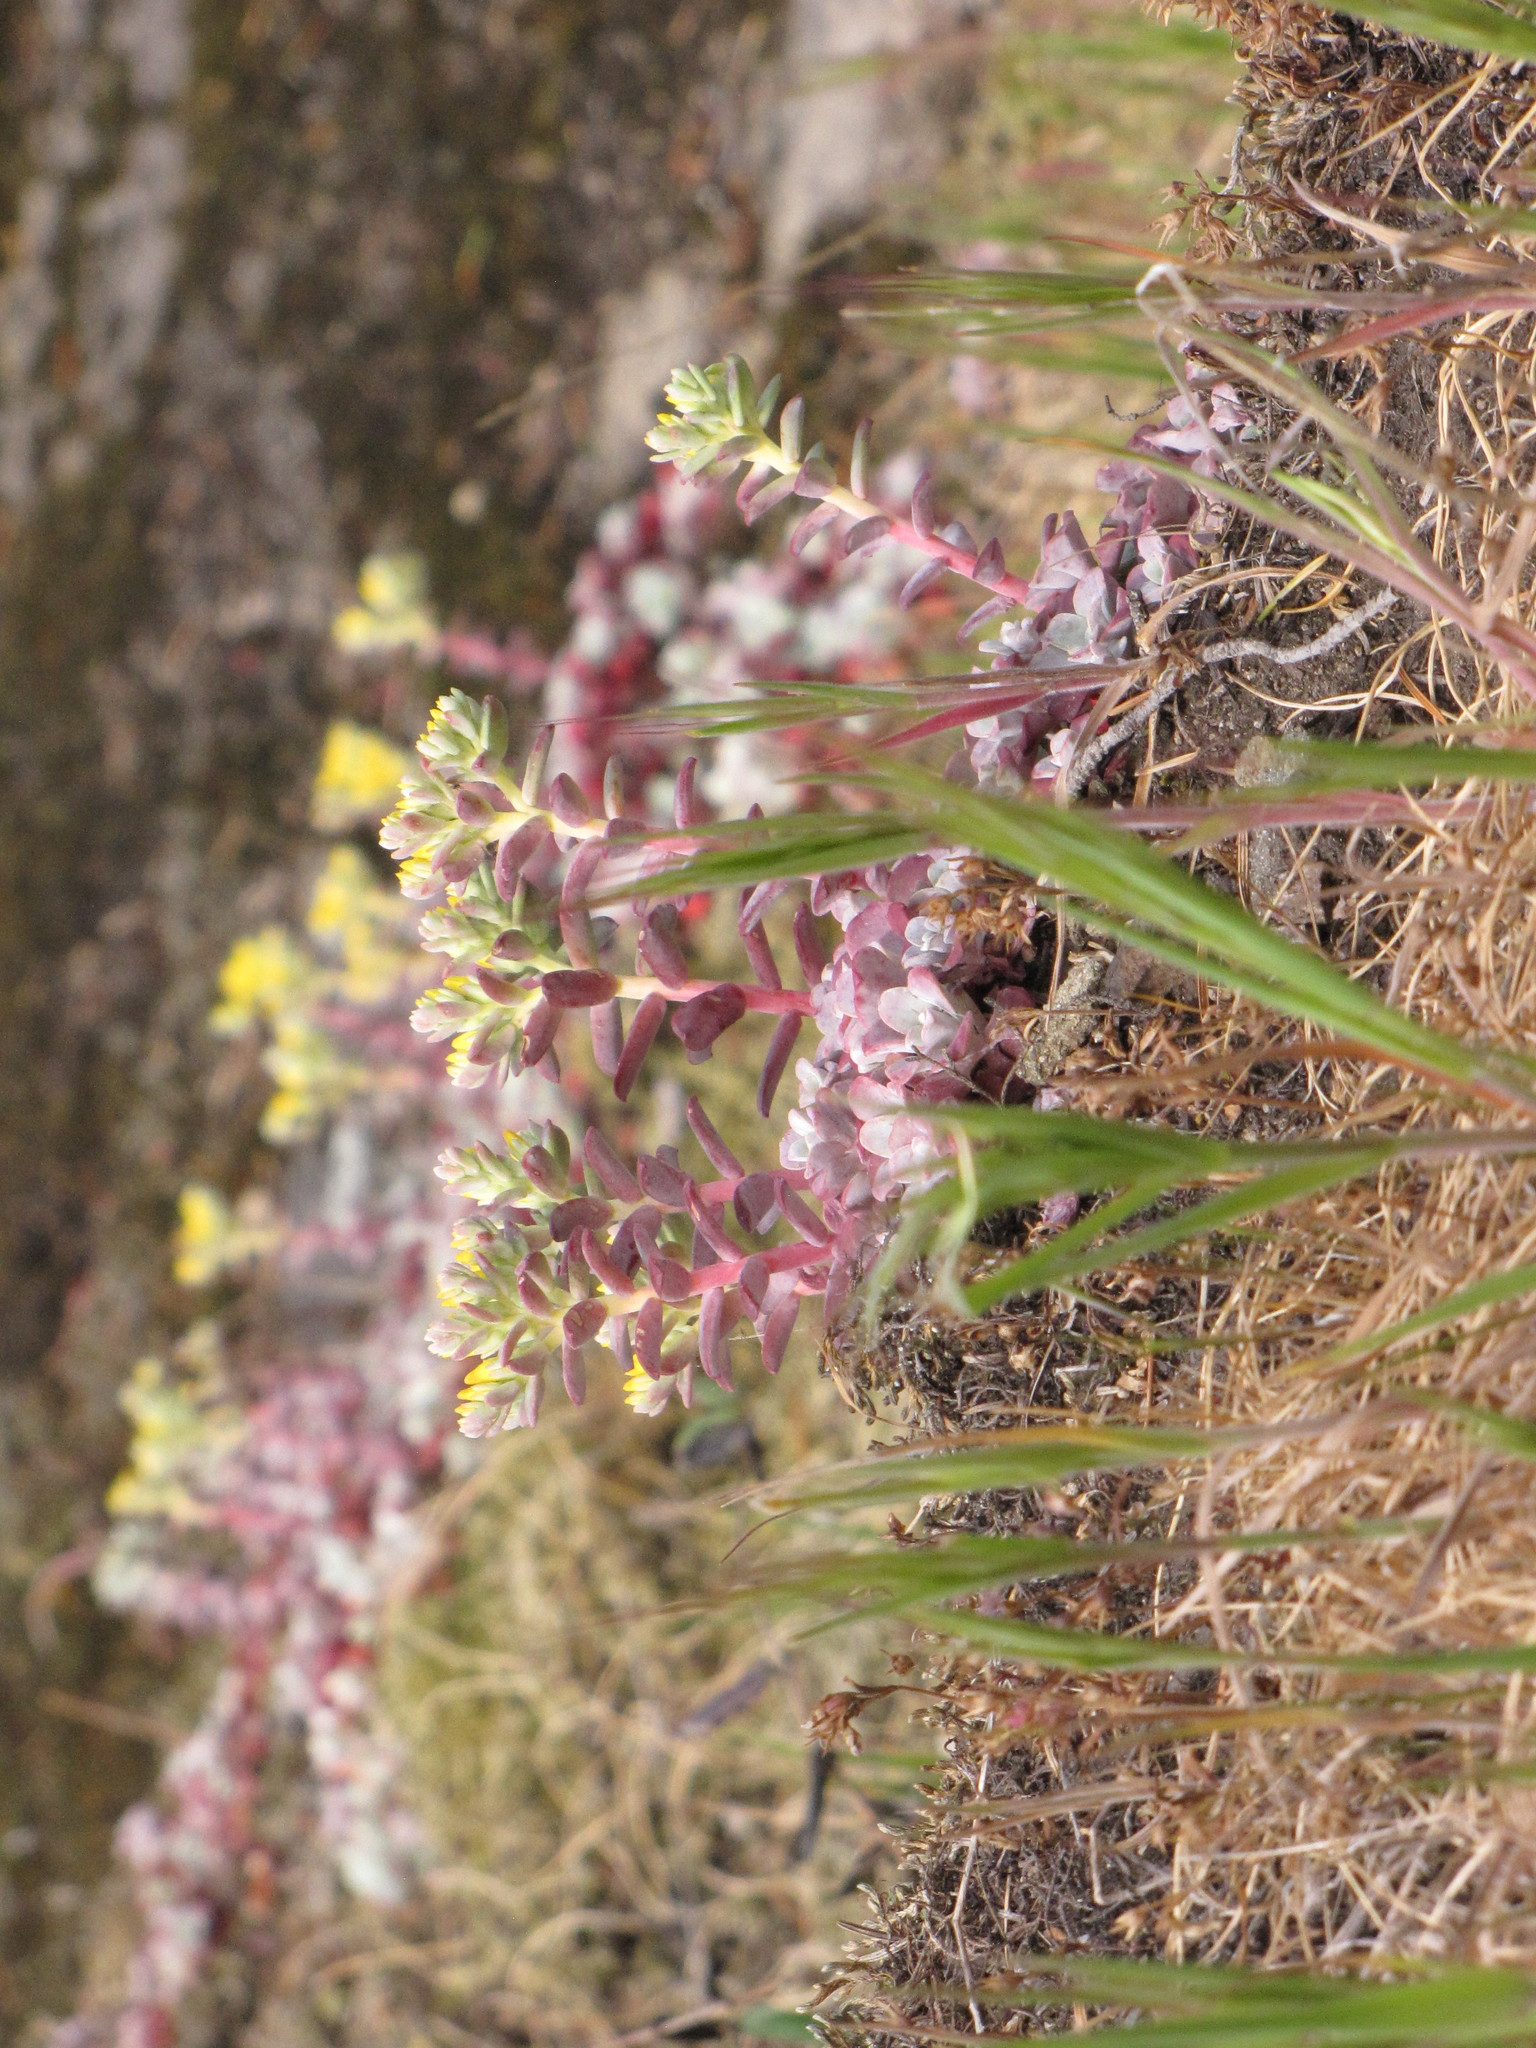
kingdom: Plantae
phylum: Tracheophyta
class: Magnoliopsida
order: Saxifragales
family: Crassulaceae
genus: Sedum
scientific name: Sedum spathulifolium
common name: Colorado stonecrop
